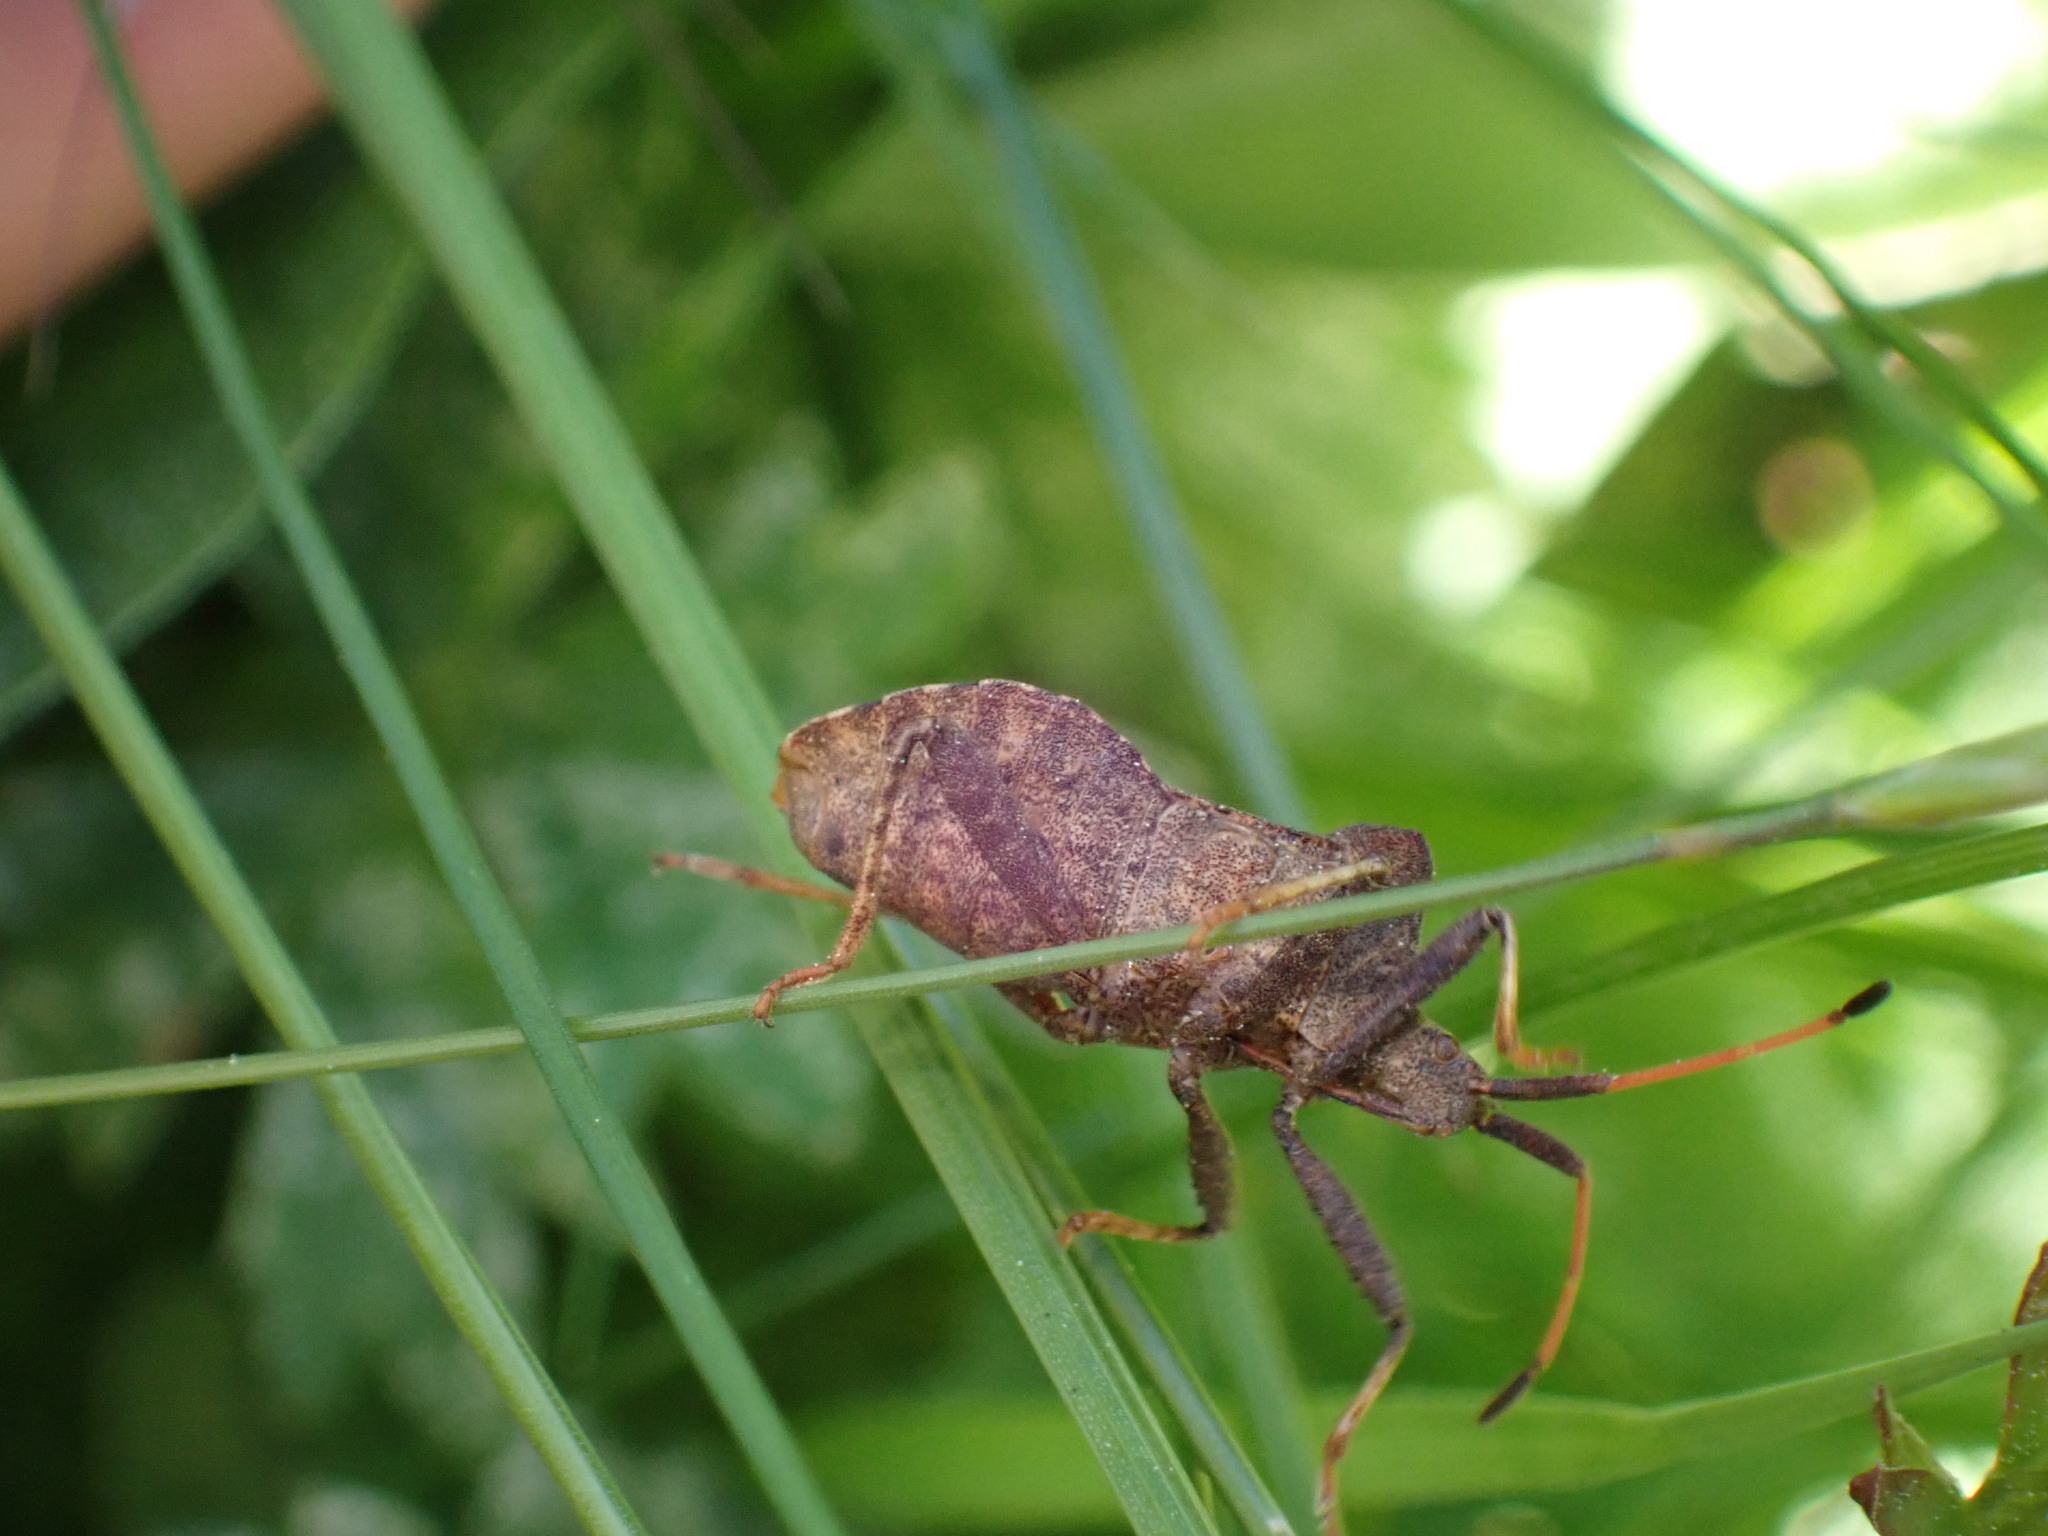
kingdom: Animalia
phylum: Arthropoda
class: Insecta
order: Hemiptera
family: Coreidae
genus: Coreus
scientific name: Coreus marginatus
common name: Dock bug
